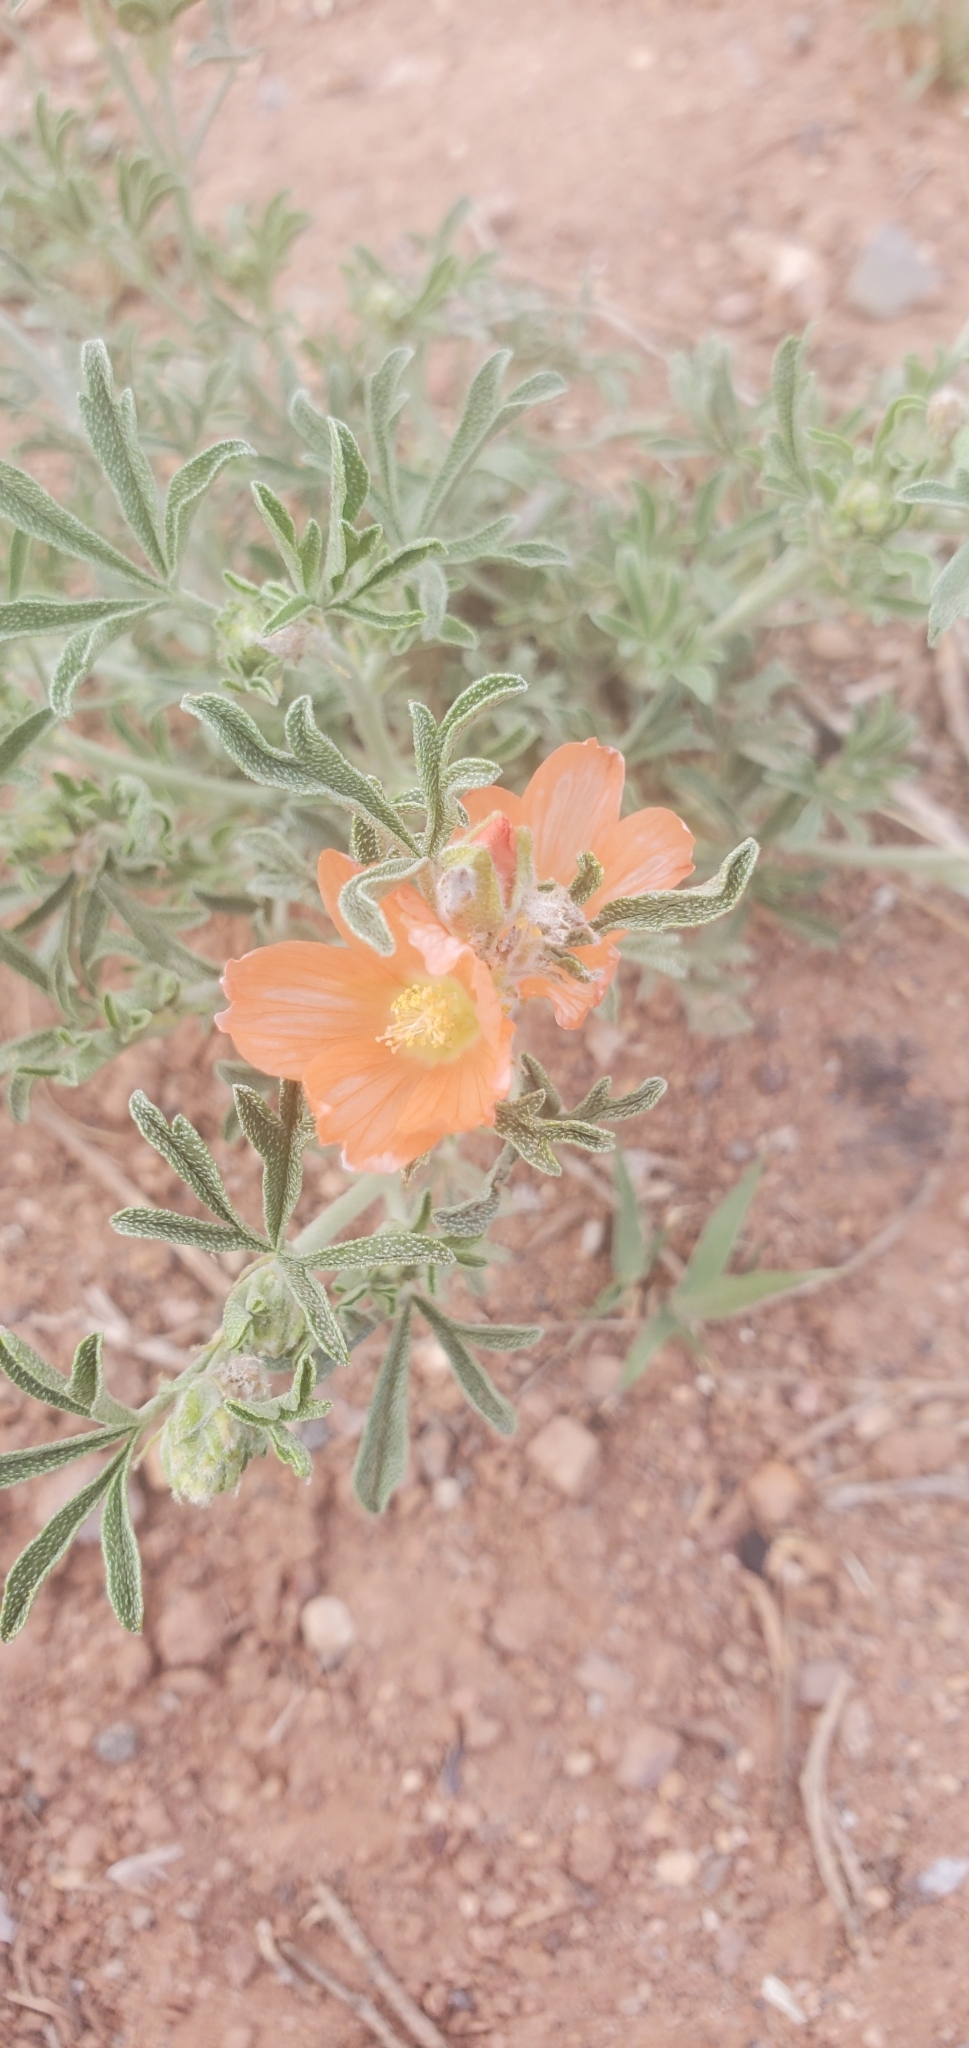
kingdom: Plantae
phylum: Tracheophyta
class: Magnoliopsida
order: Malvales
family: Malvaceae
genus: Sphaeralcea
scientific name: Sphaeralcea coccinea
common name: Moss-rose
